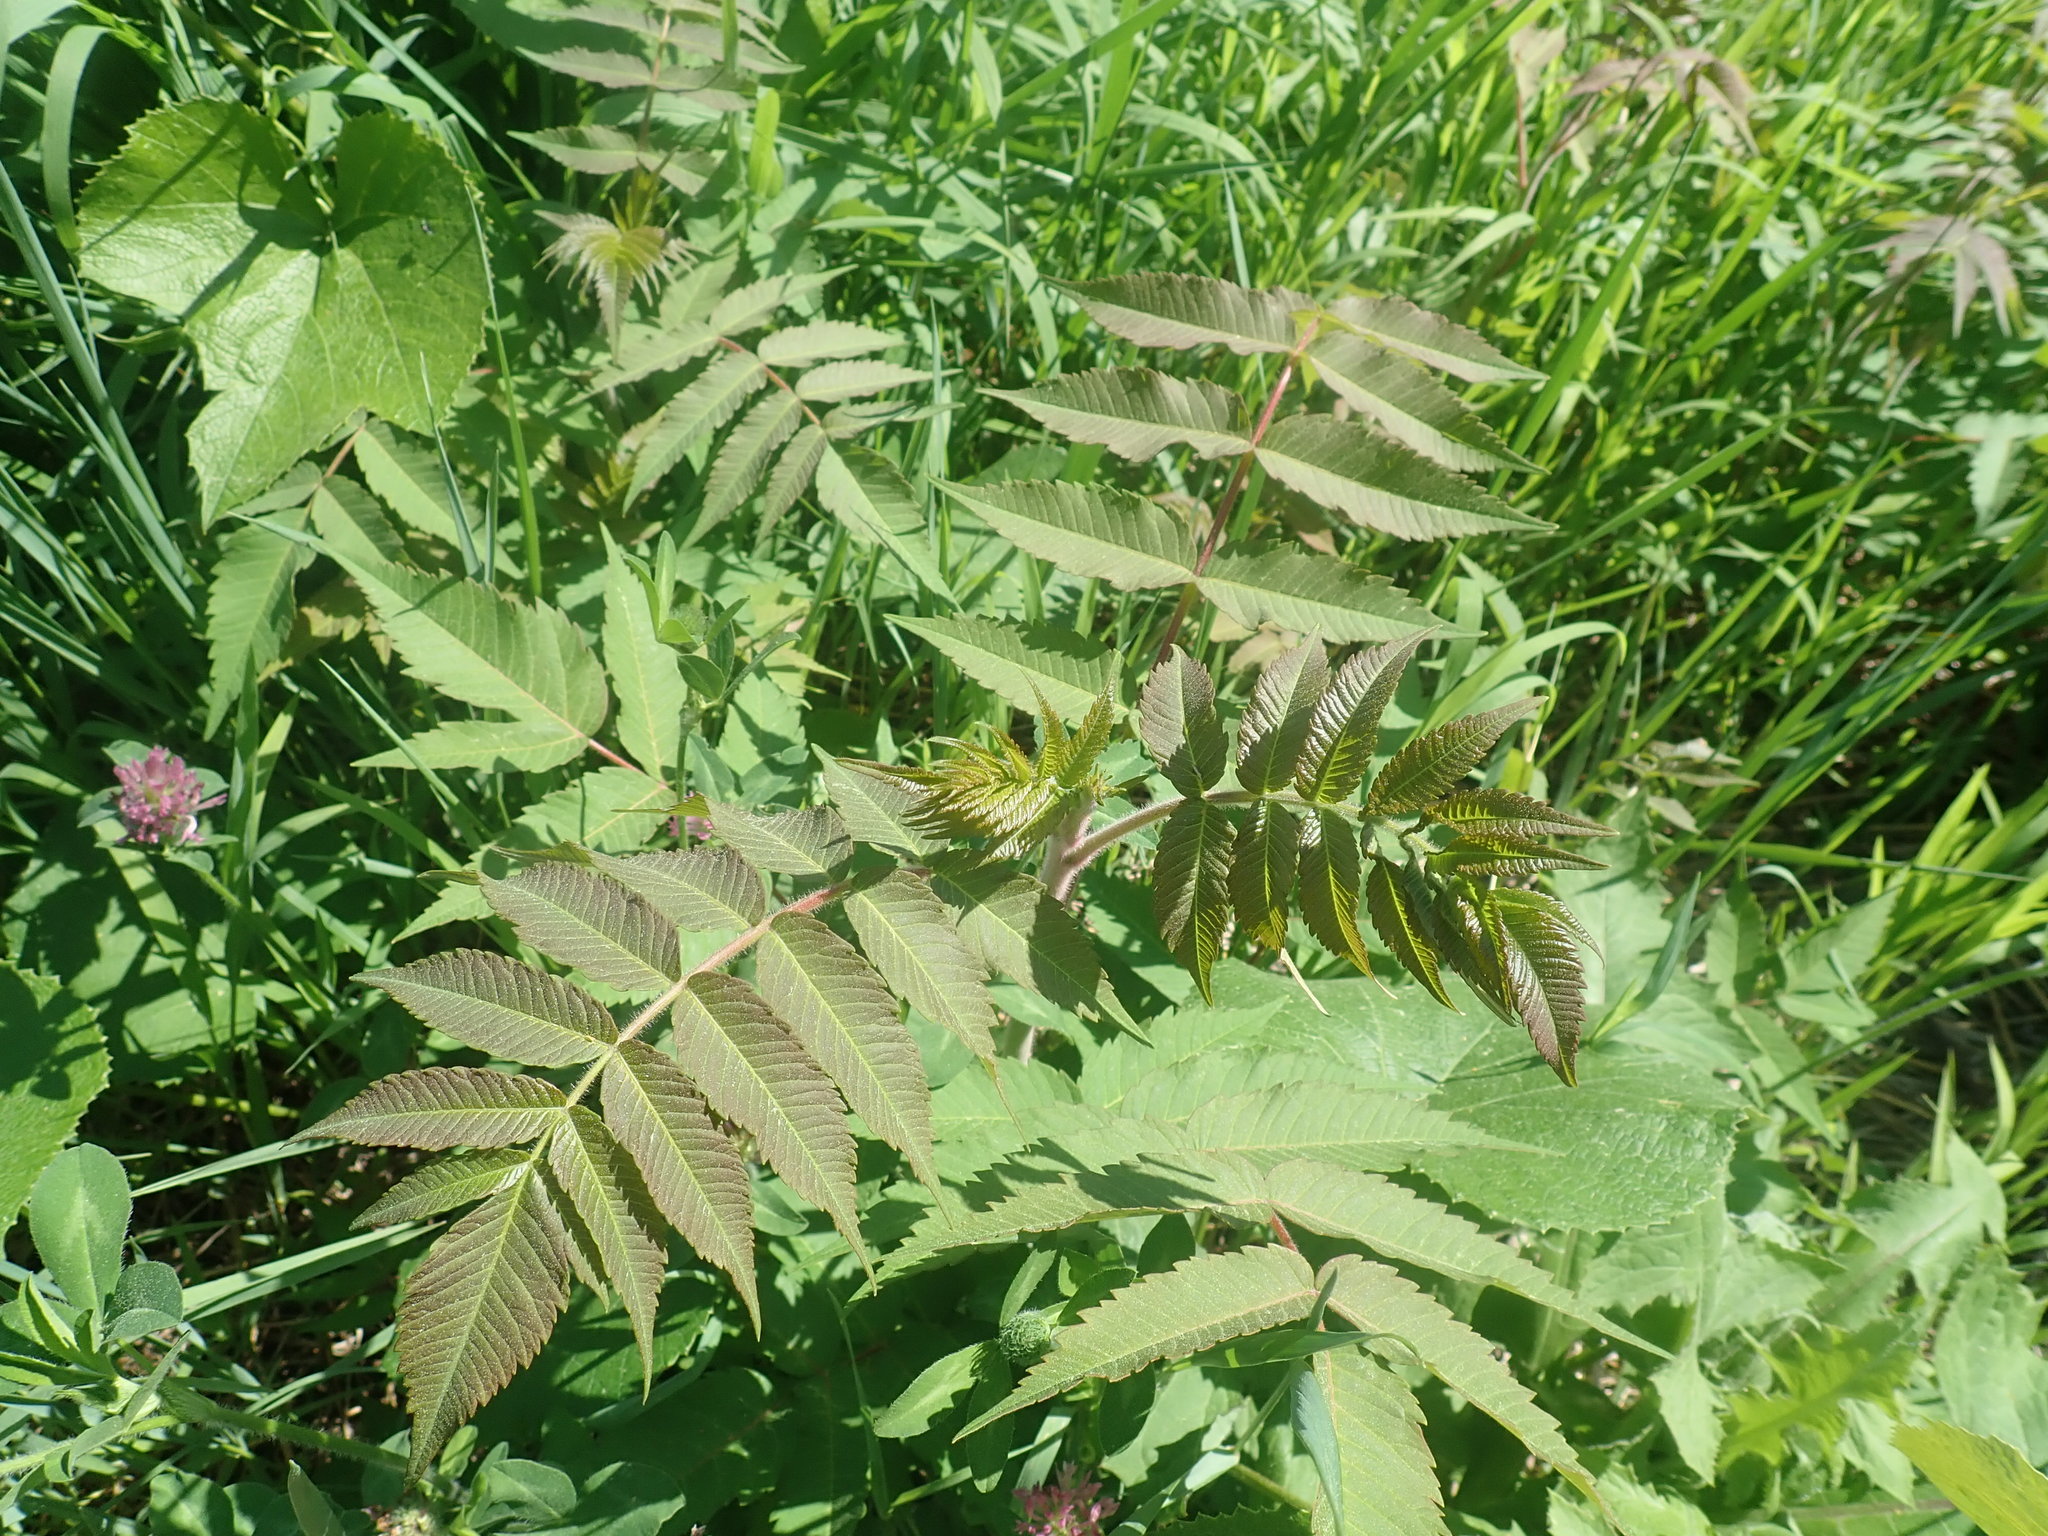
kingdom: Plantae
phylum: Tracheophyta
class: Magnoliopsida
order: Sapindales
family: Anacardiaceae
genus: Rhus
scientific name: Rhus typhina
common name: Staghorn sumac
